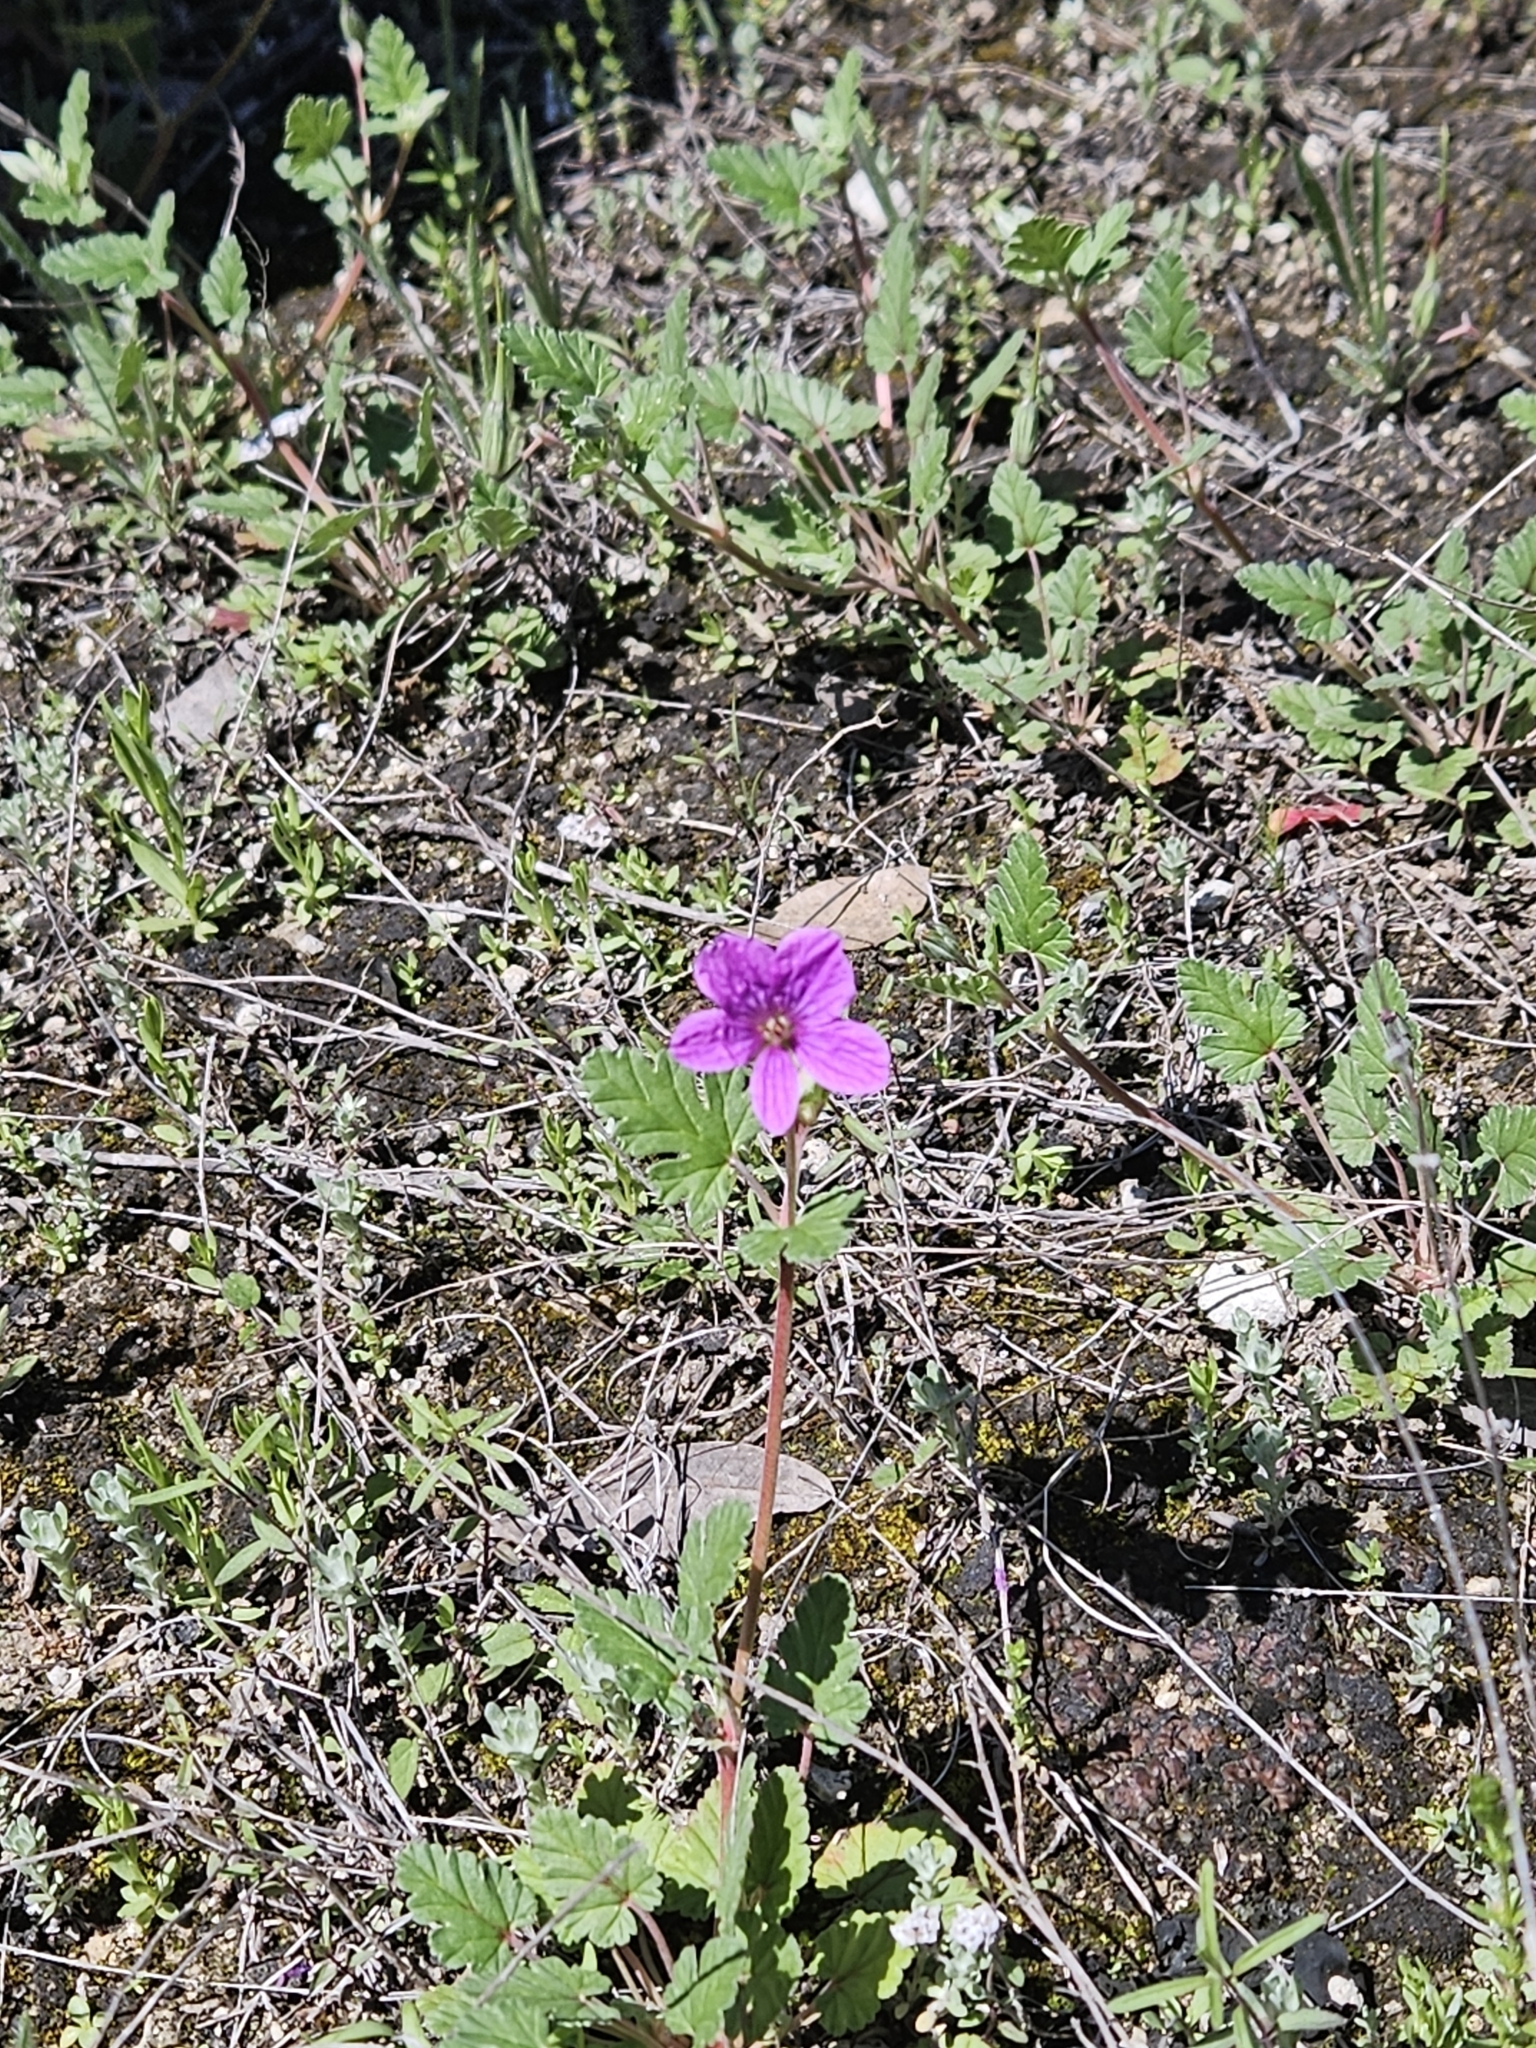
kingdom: Plantae
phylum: Tracheophyta
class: Magnoliopsida
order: Geraniales
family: Geraniaceae
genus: Erodium
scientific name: Erodium texanum
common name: Texas stork's-bill
